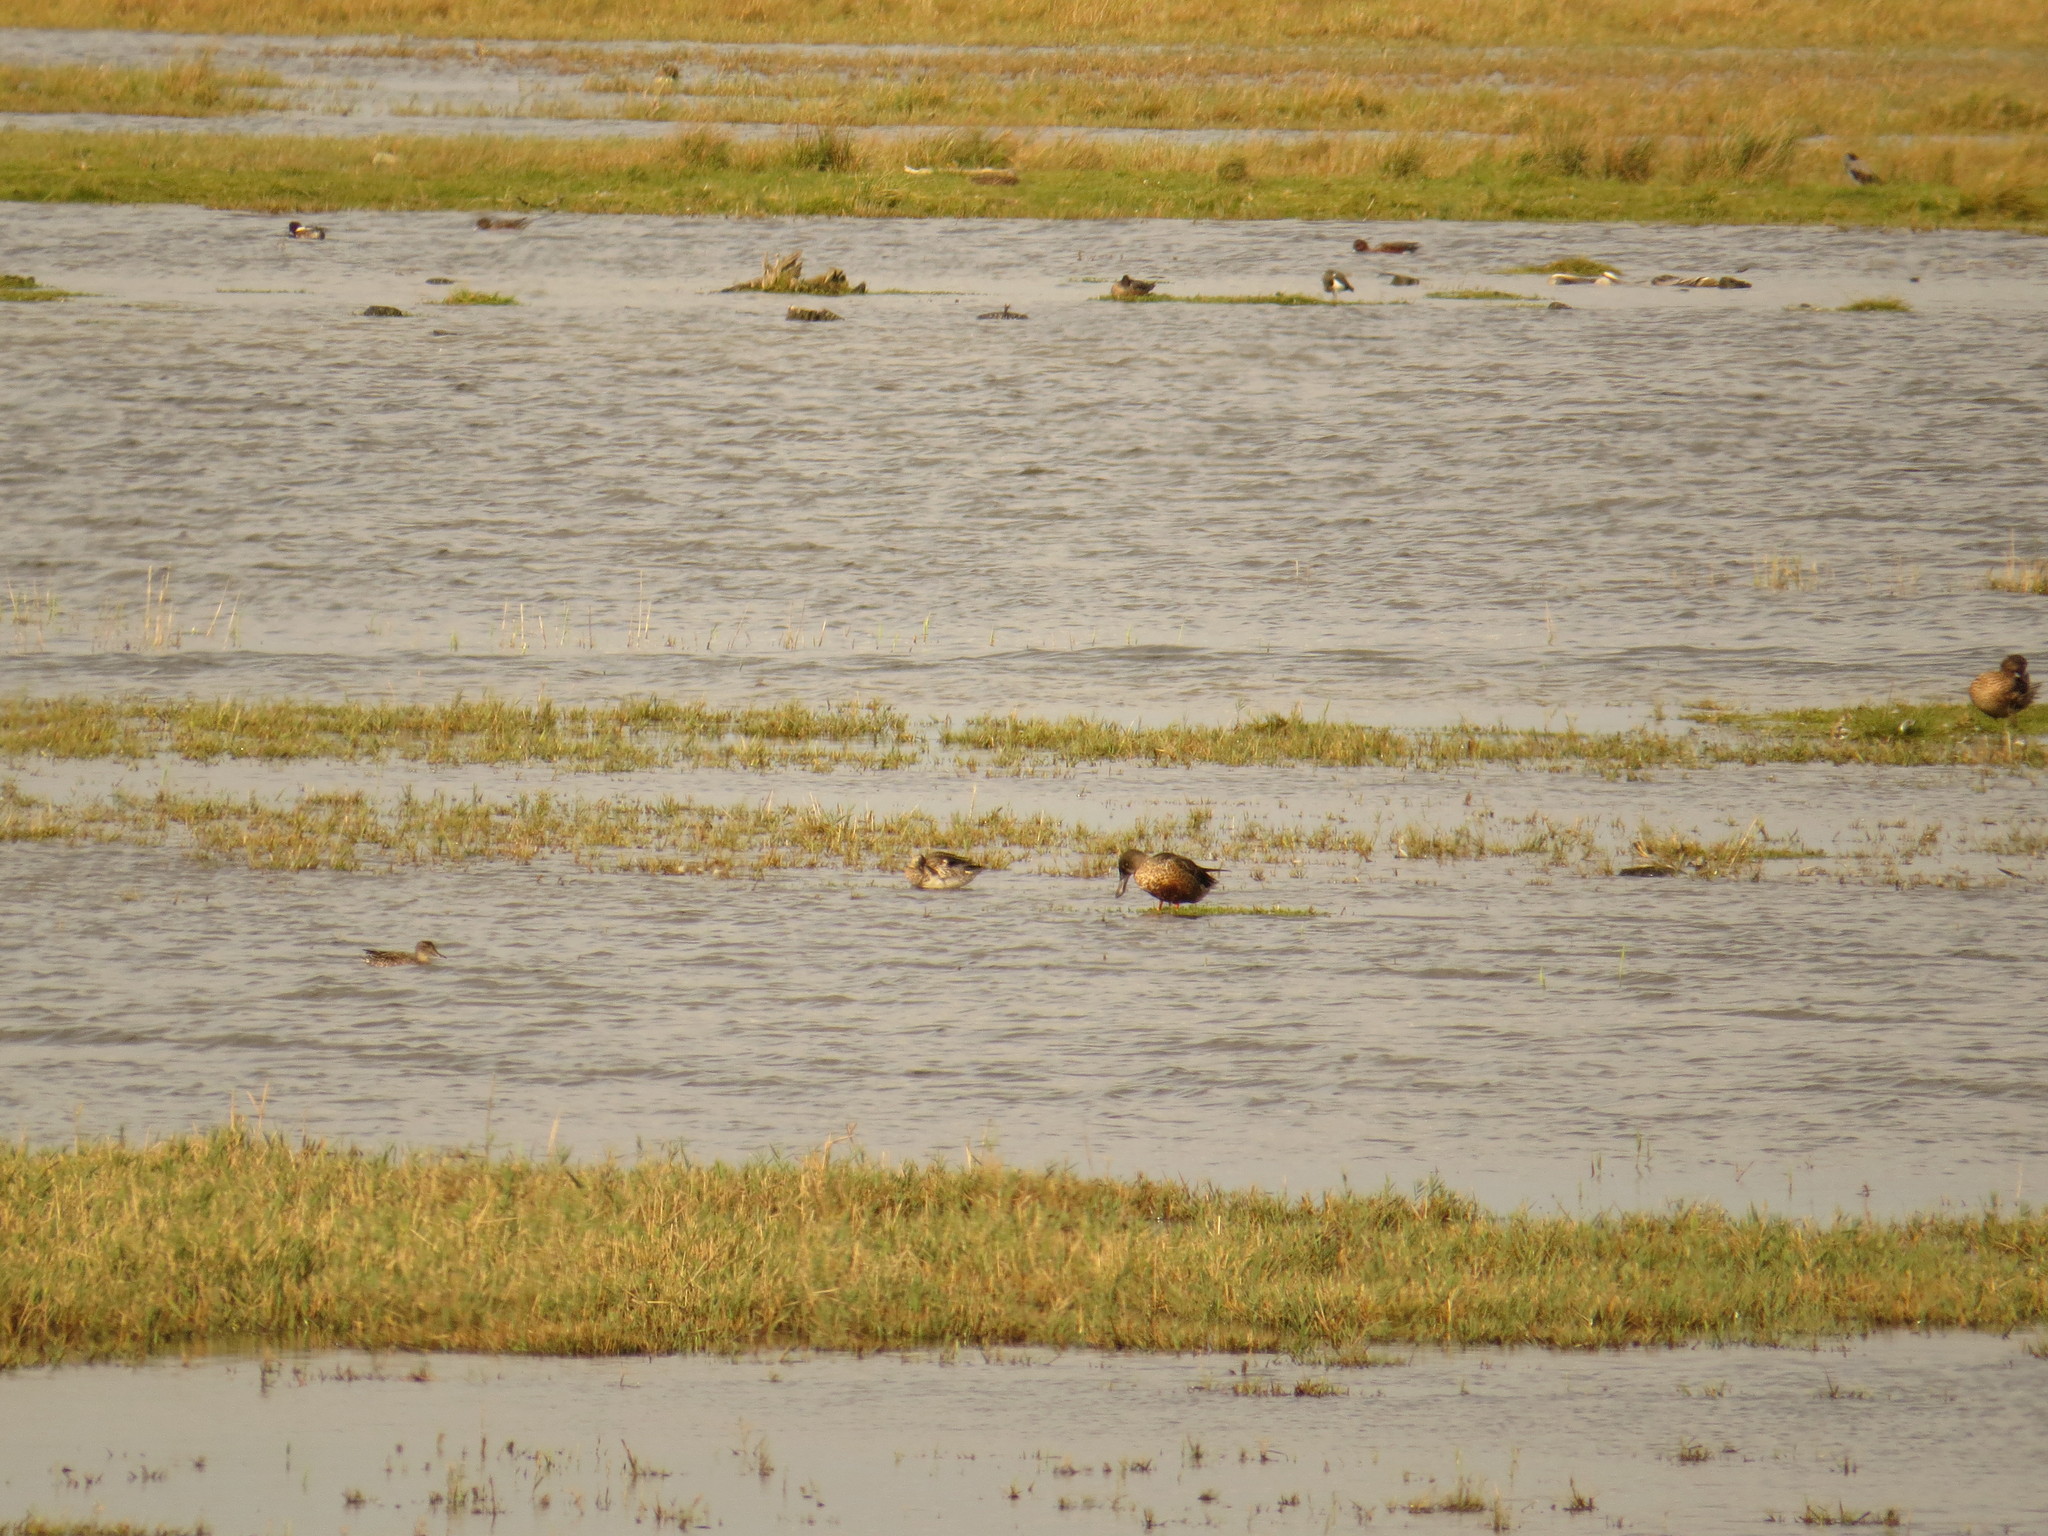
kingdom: Animalia
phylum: Chordata
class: Aves
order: Anseriformes
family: Anatidae
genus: Anas
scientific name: Anas crecca
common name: Eurasian teal
